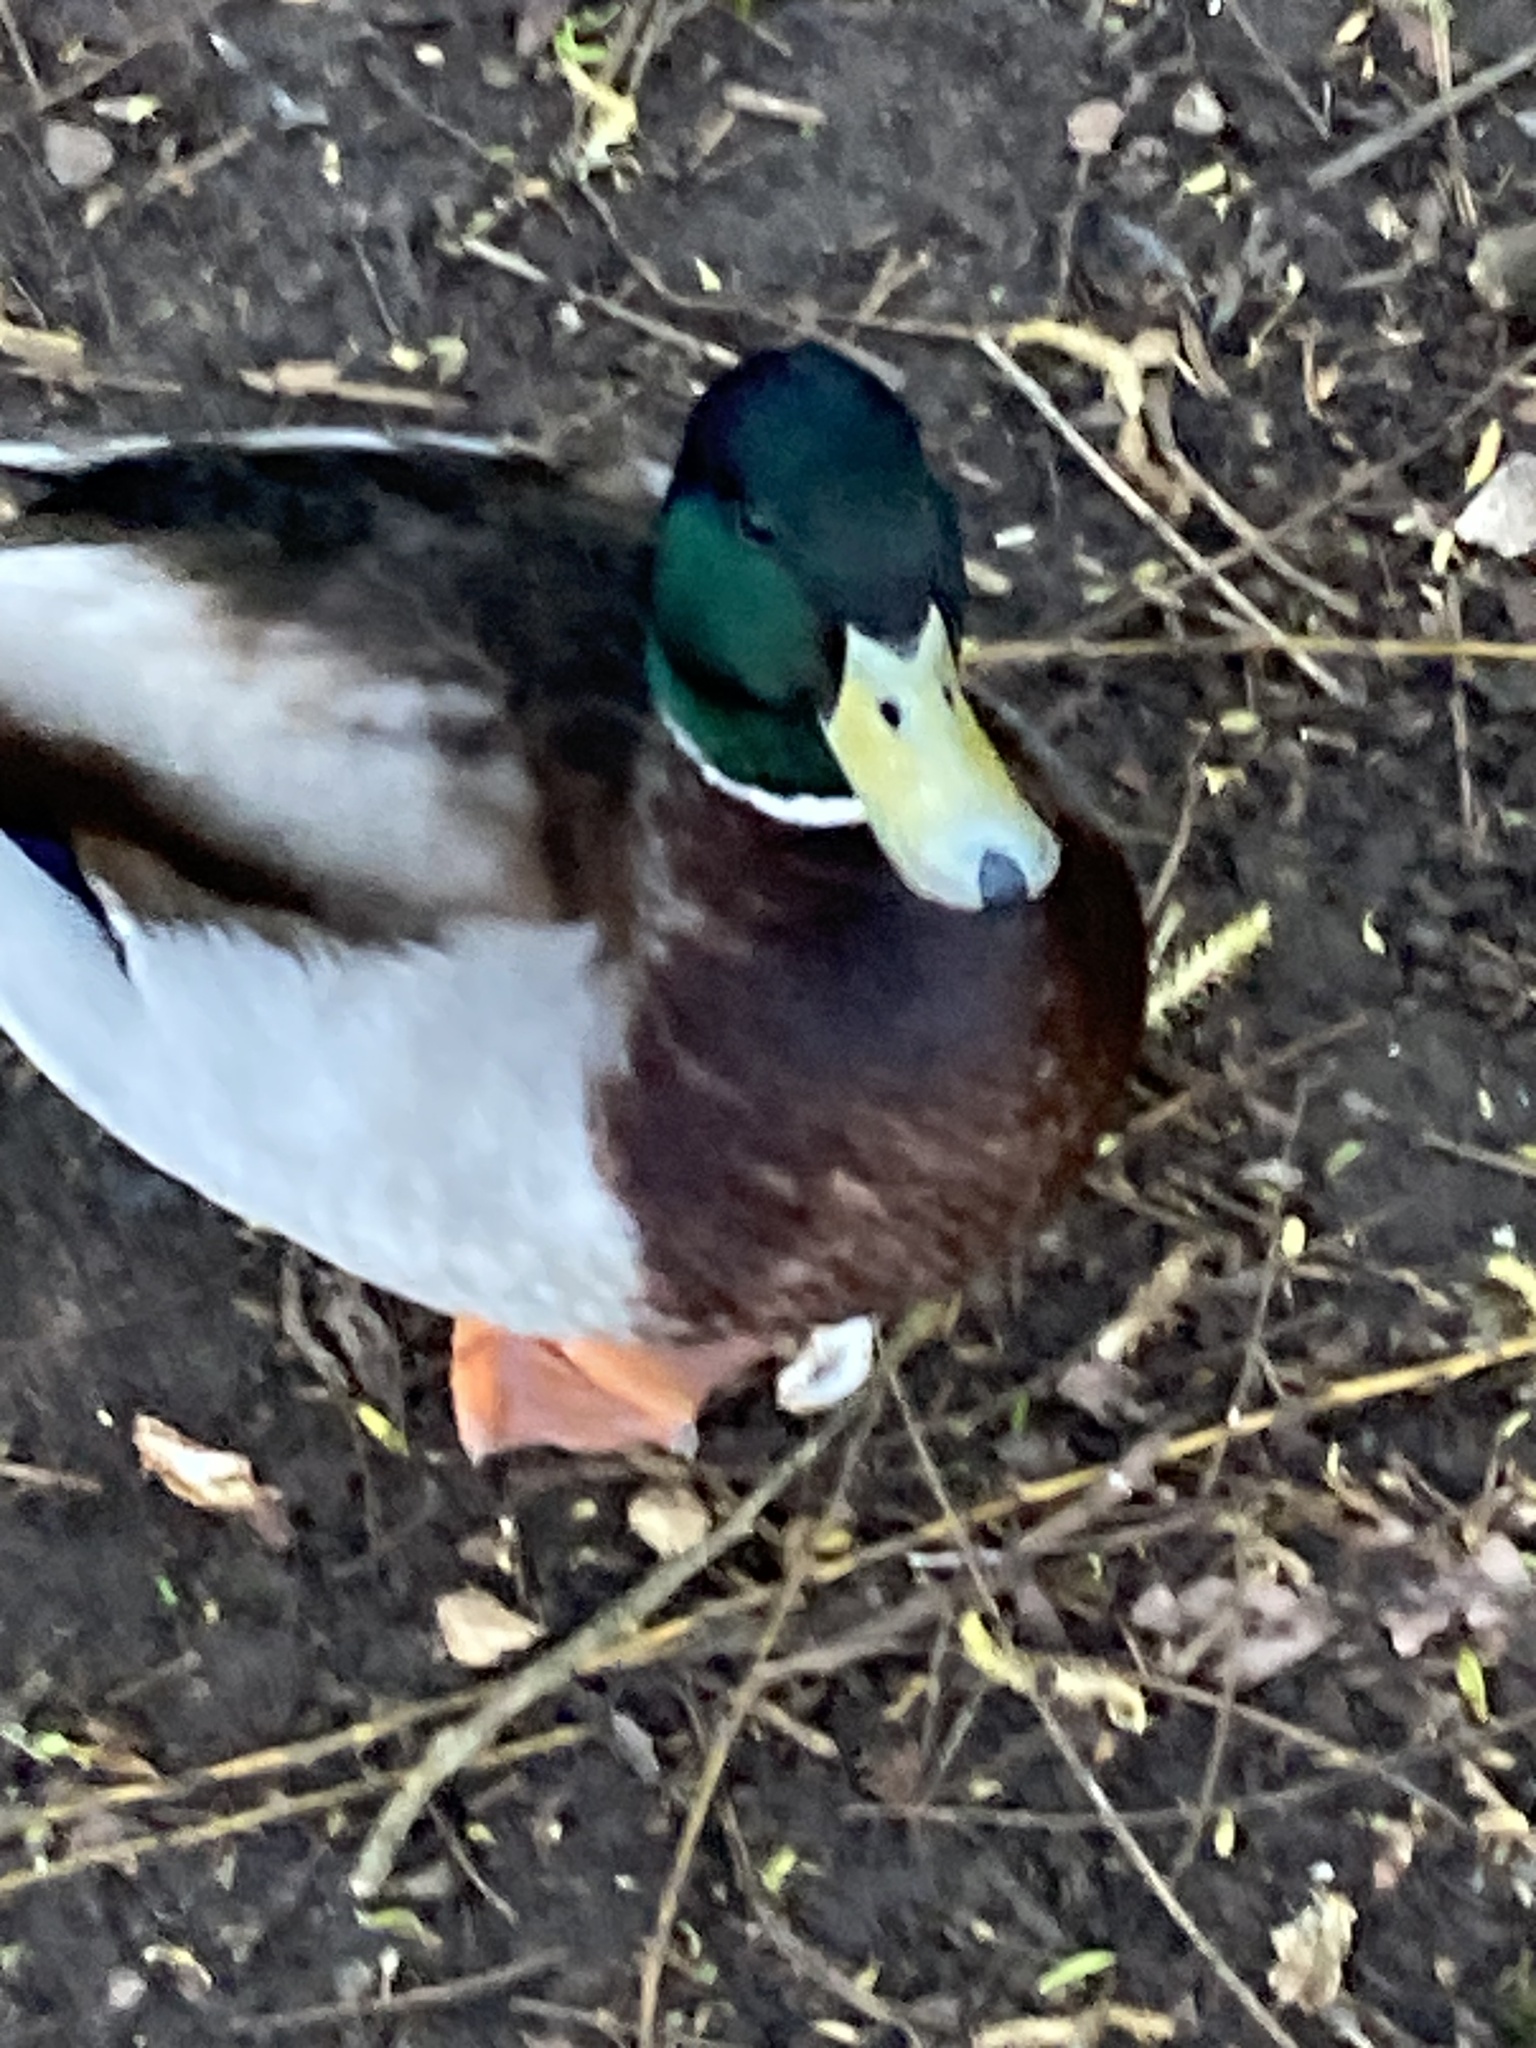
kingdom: Animalia
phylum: Chordata
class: Aves
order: Anseriformes
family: Anatidae
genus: Anas
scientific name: Anas platyrhynchos
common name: Mallard
